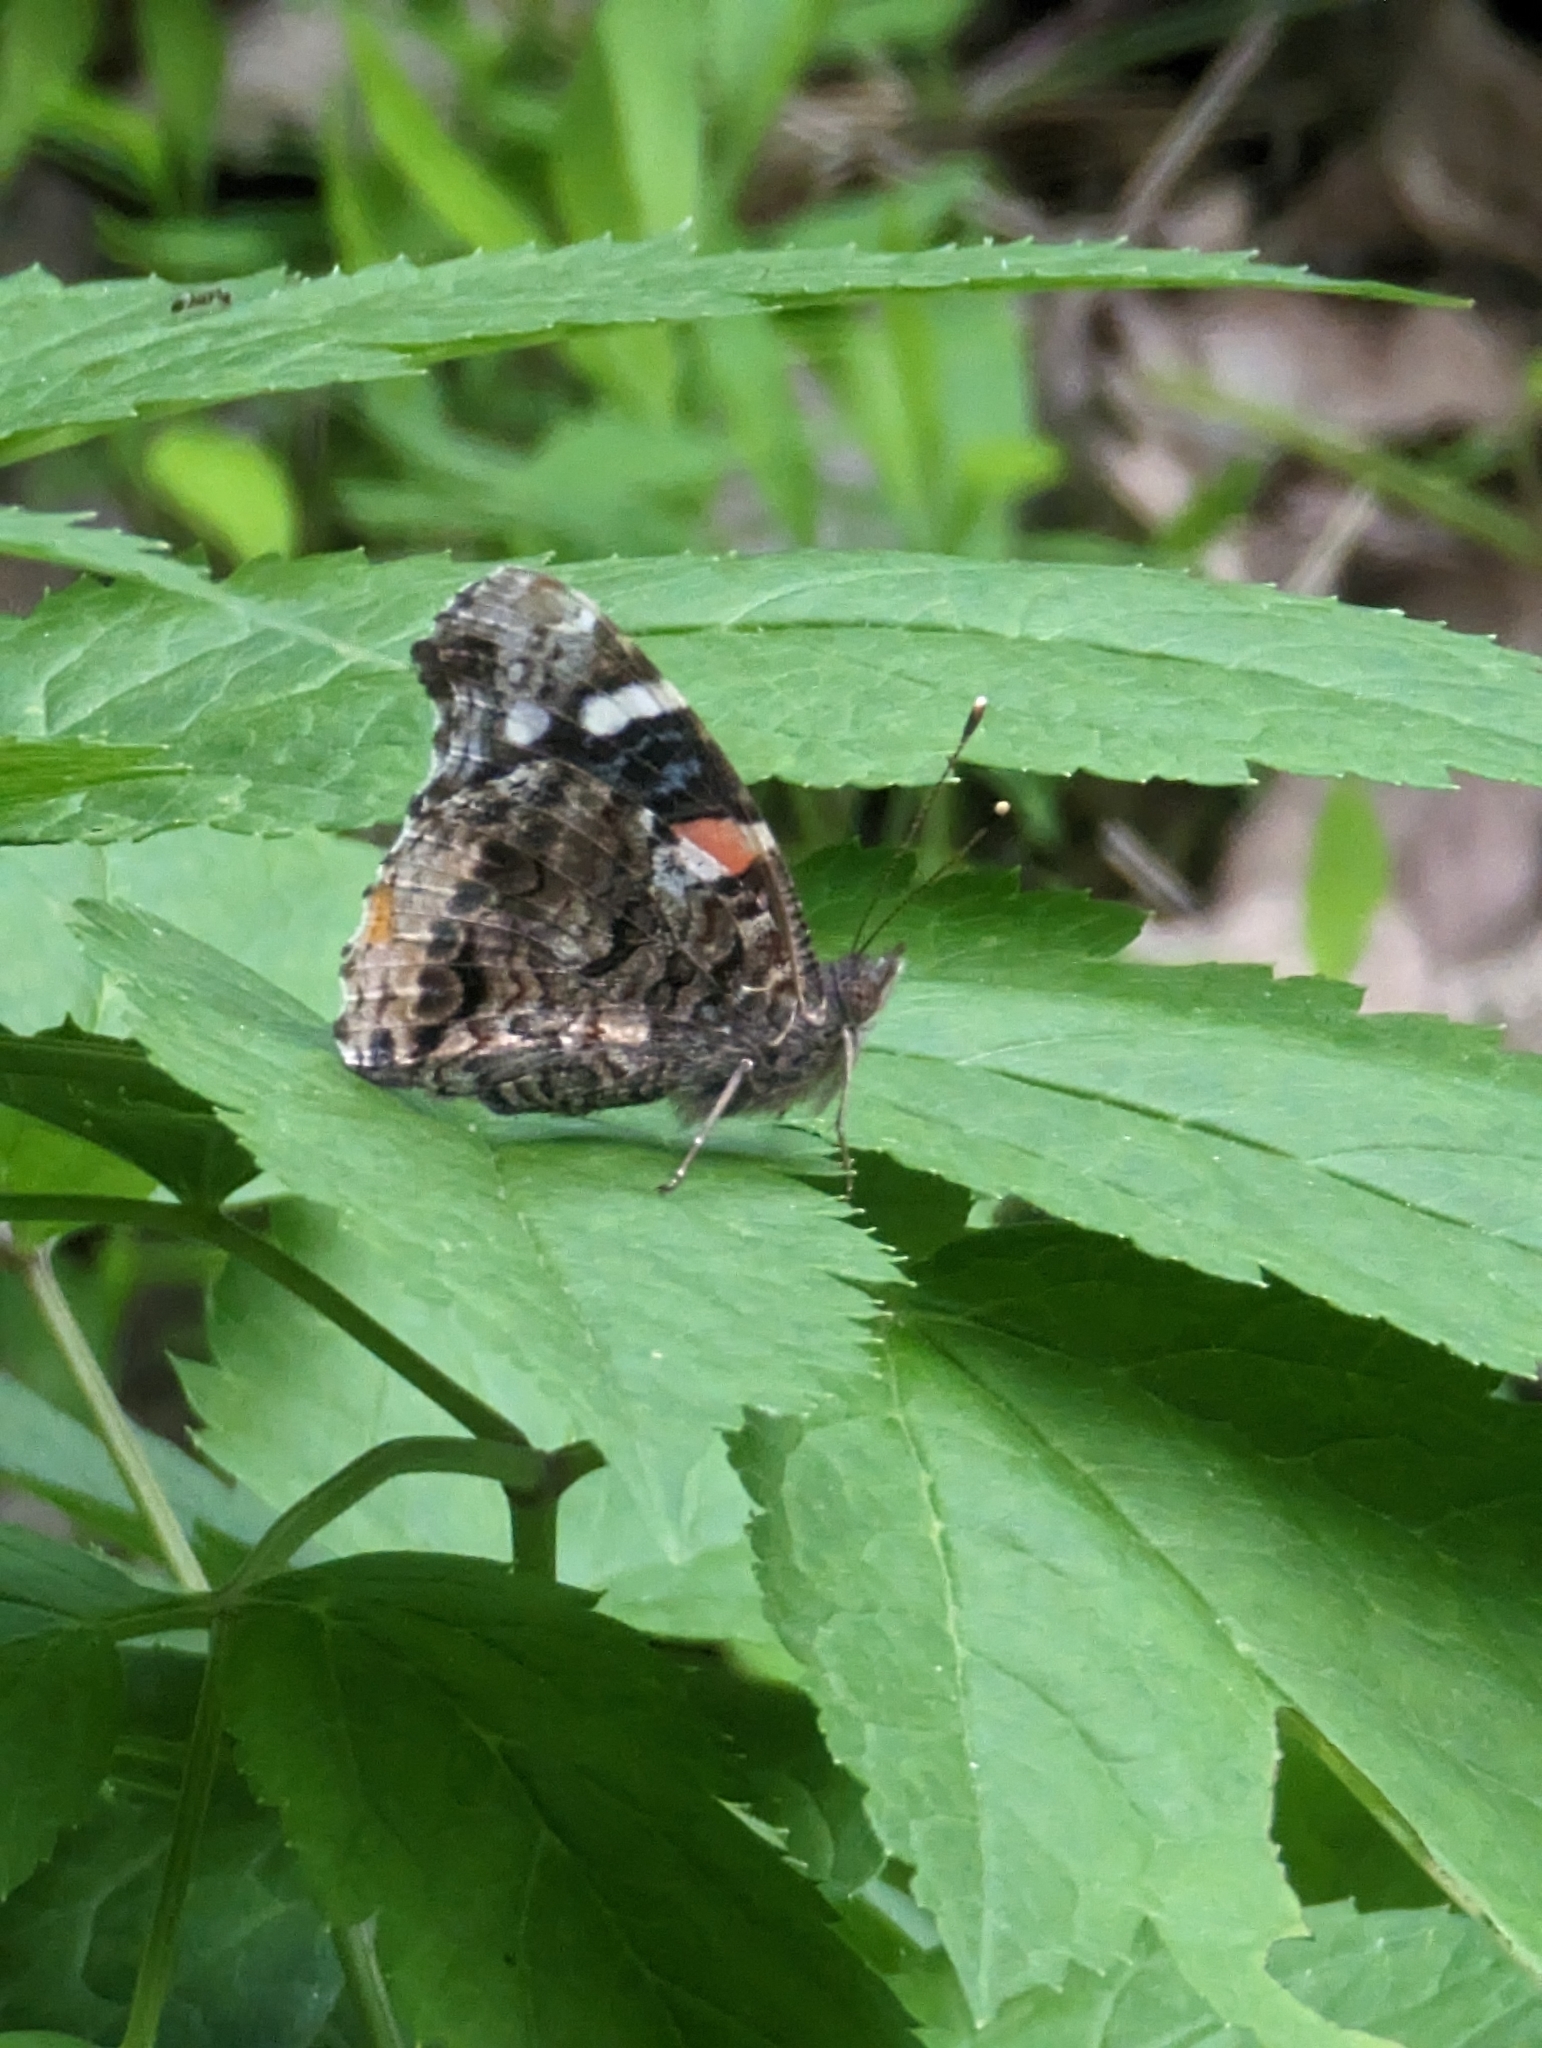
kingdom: Animalia
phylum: Arthropoda
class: Insecta
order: Lepidoptera
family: Nymphalidae
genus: Vanessa
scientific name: Vanessa atalanta
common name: Red admiral
